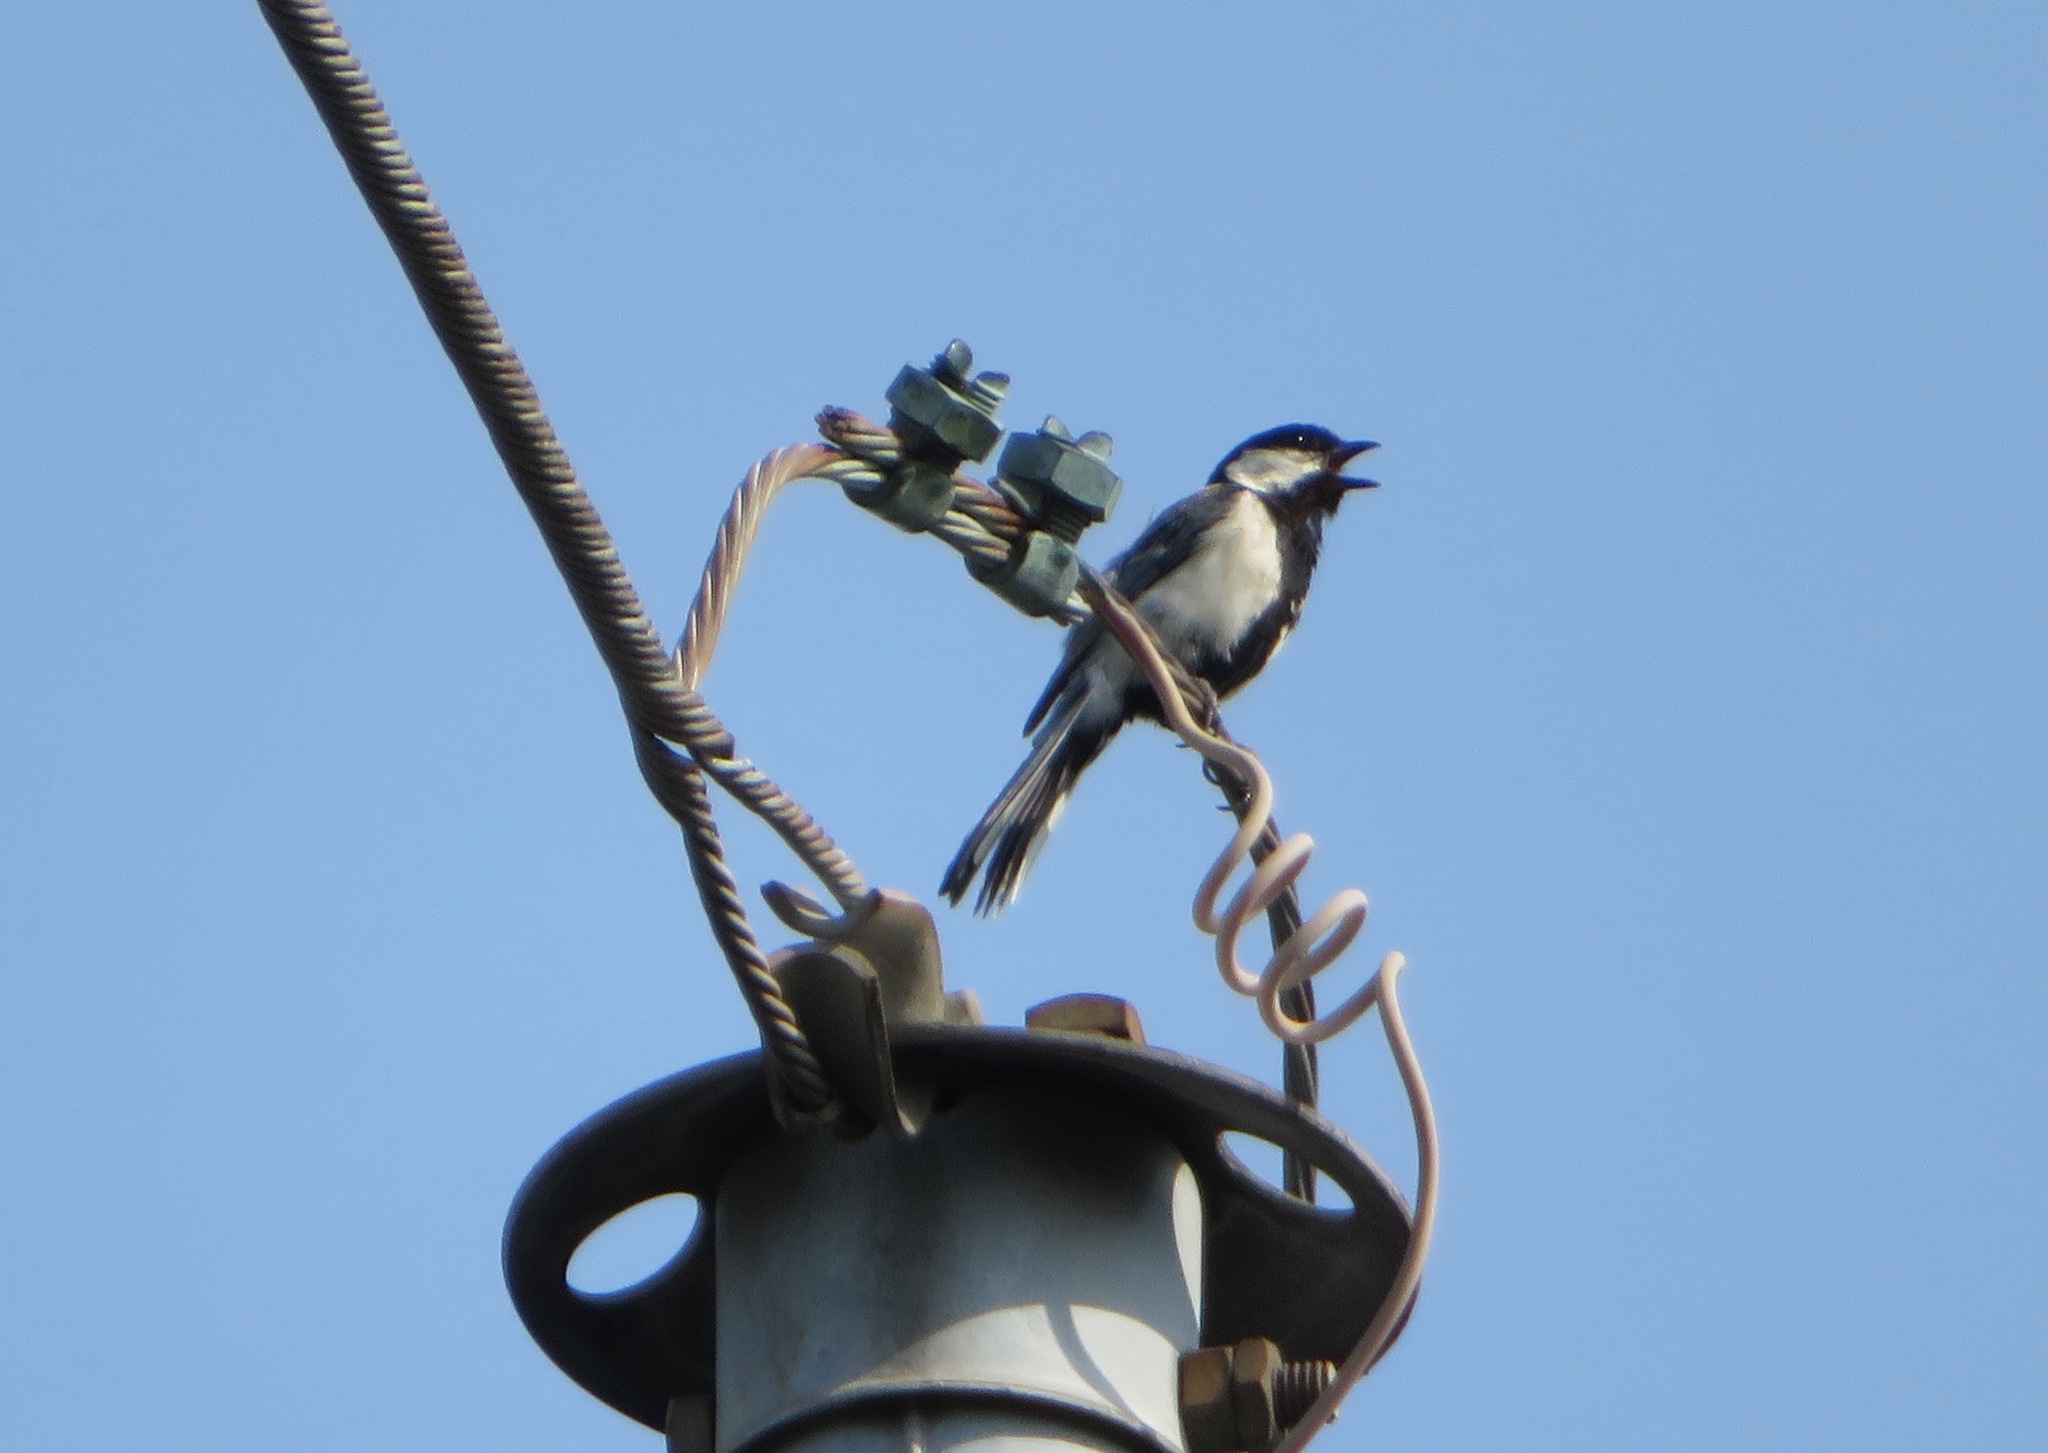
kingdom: Animalia
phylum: Chordata
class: Aves
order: Passeriformes
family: Paridae
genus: Parus
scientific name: Parus minor
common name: Japanese tit
